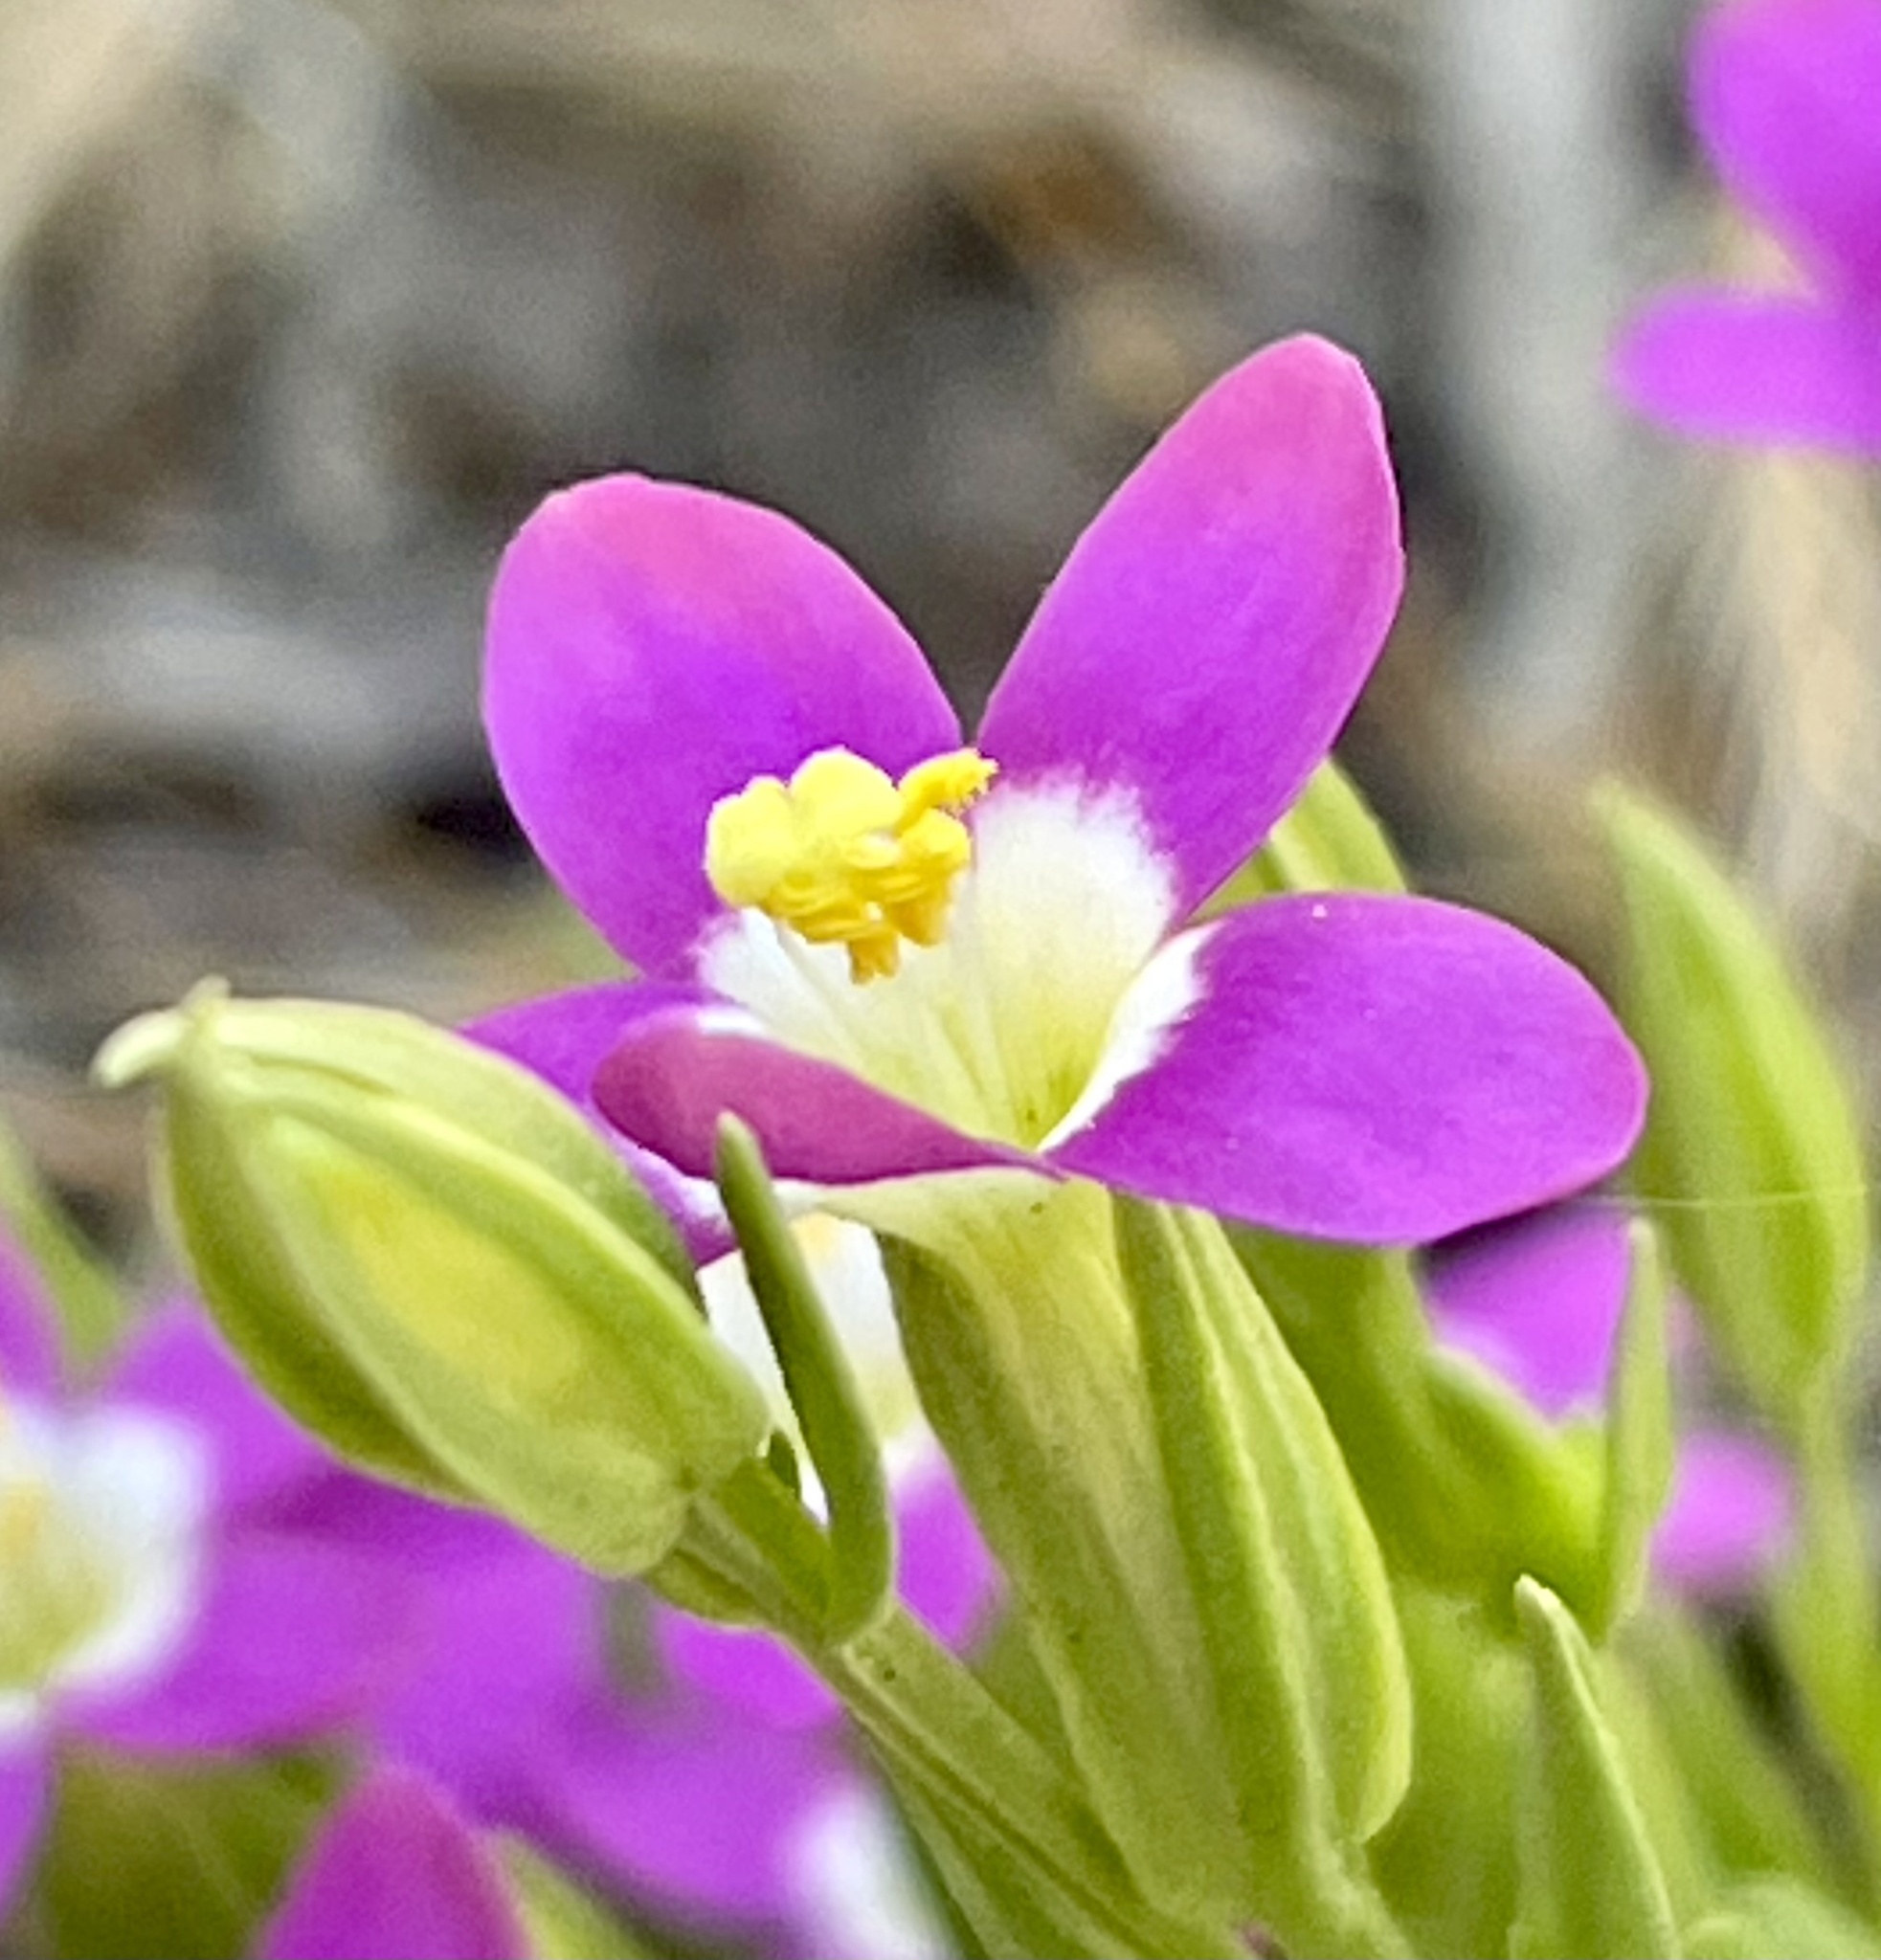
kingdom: Plantae
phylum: Tracheophyta
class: Magnoliopsida
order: Gentianales
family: Gentianaceae
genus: Zeltnera
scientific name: Zeltnera davyi
